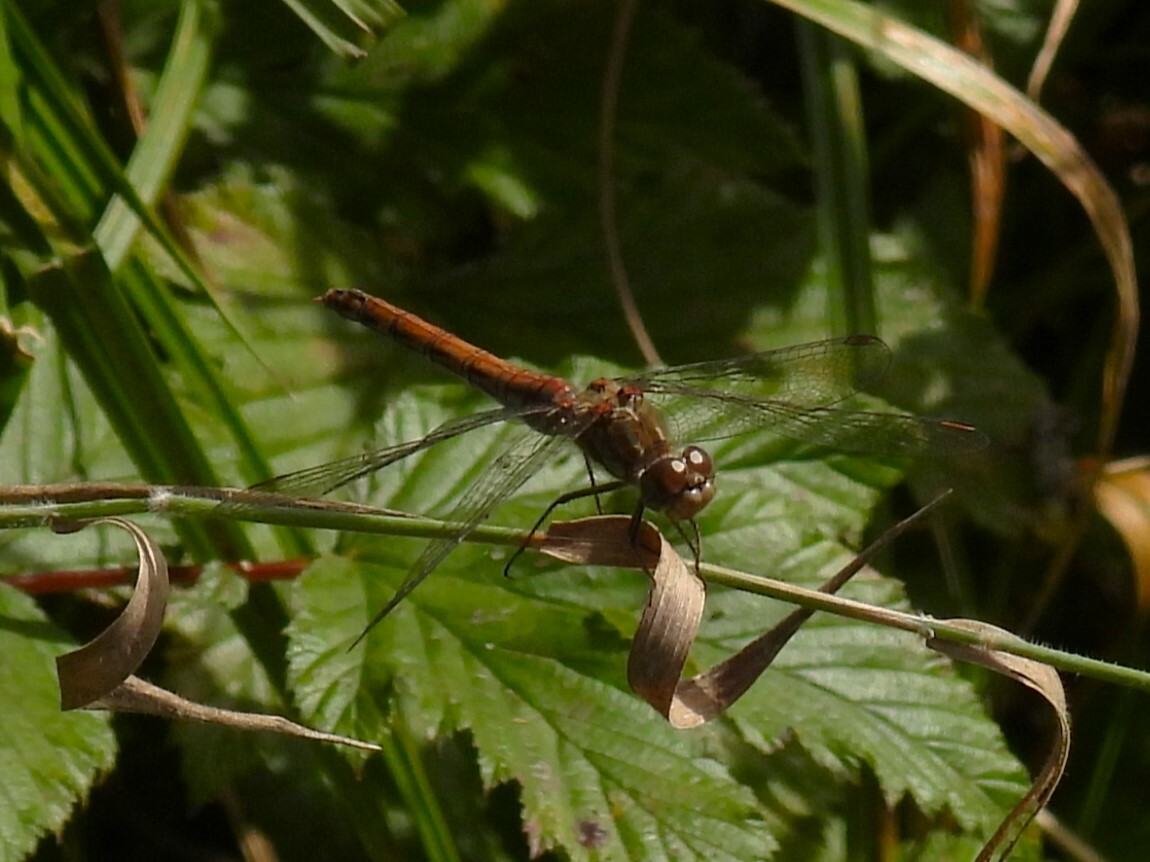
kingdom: Animalia
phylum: Arthropoda
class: Insecta
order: Odonata
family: Libellulidae
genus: Sympetrum
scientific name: Sympetrum striolatum
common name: Common darter
